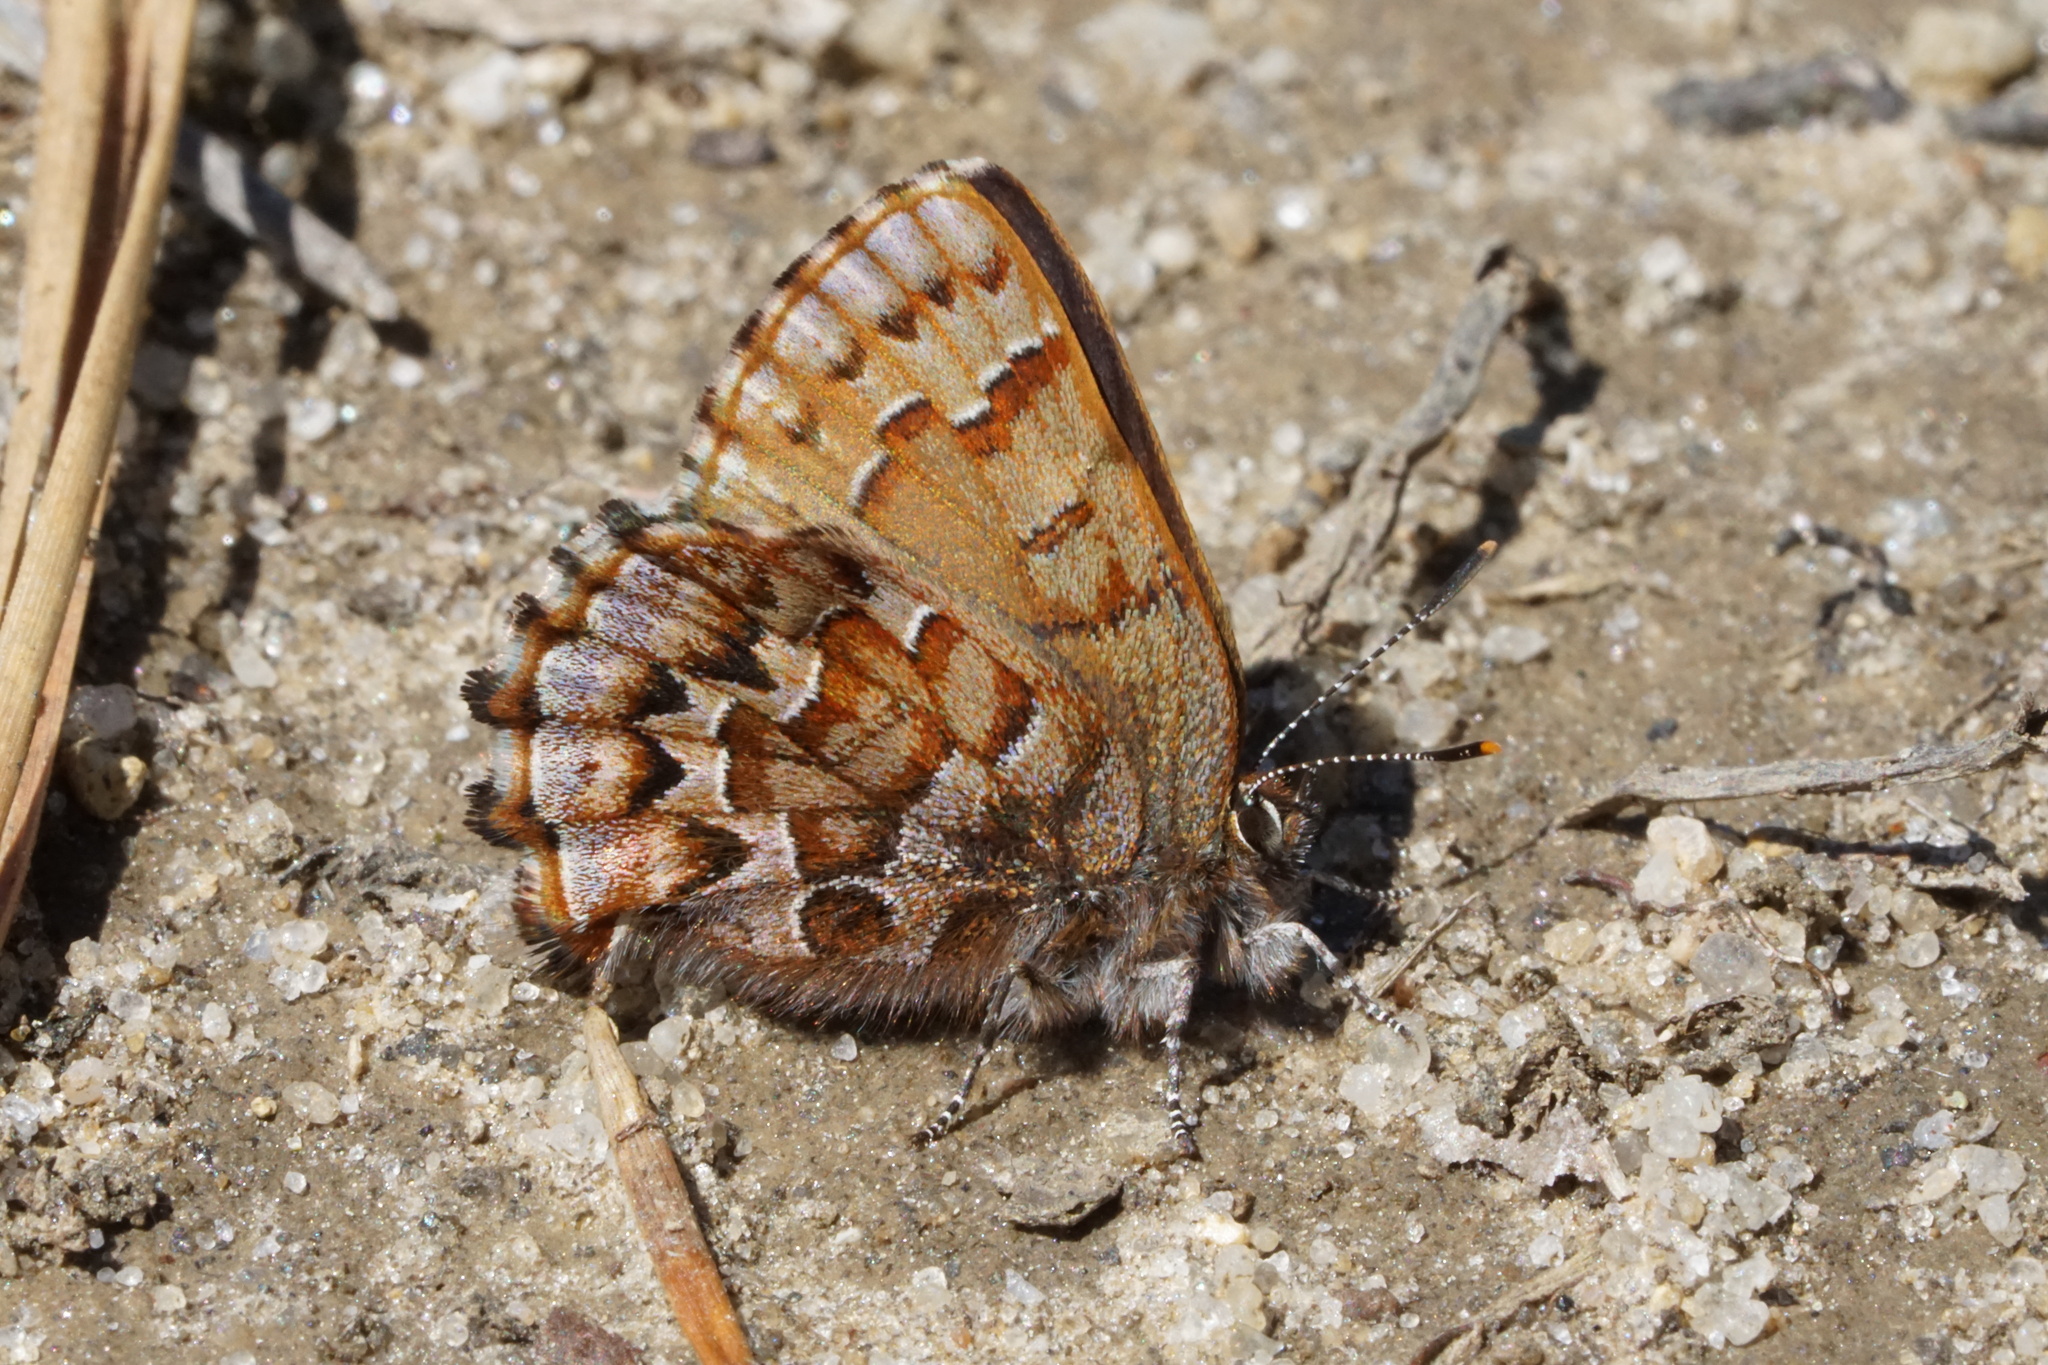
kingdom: Animalia
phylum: Arthropoda
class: Insecta
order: Lepidoptera
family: Lycaenidae
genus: Incisalia
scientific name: Incisalia niphon
